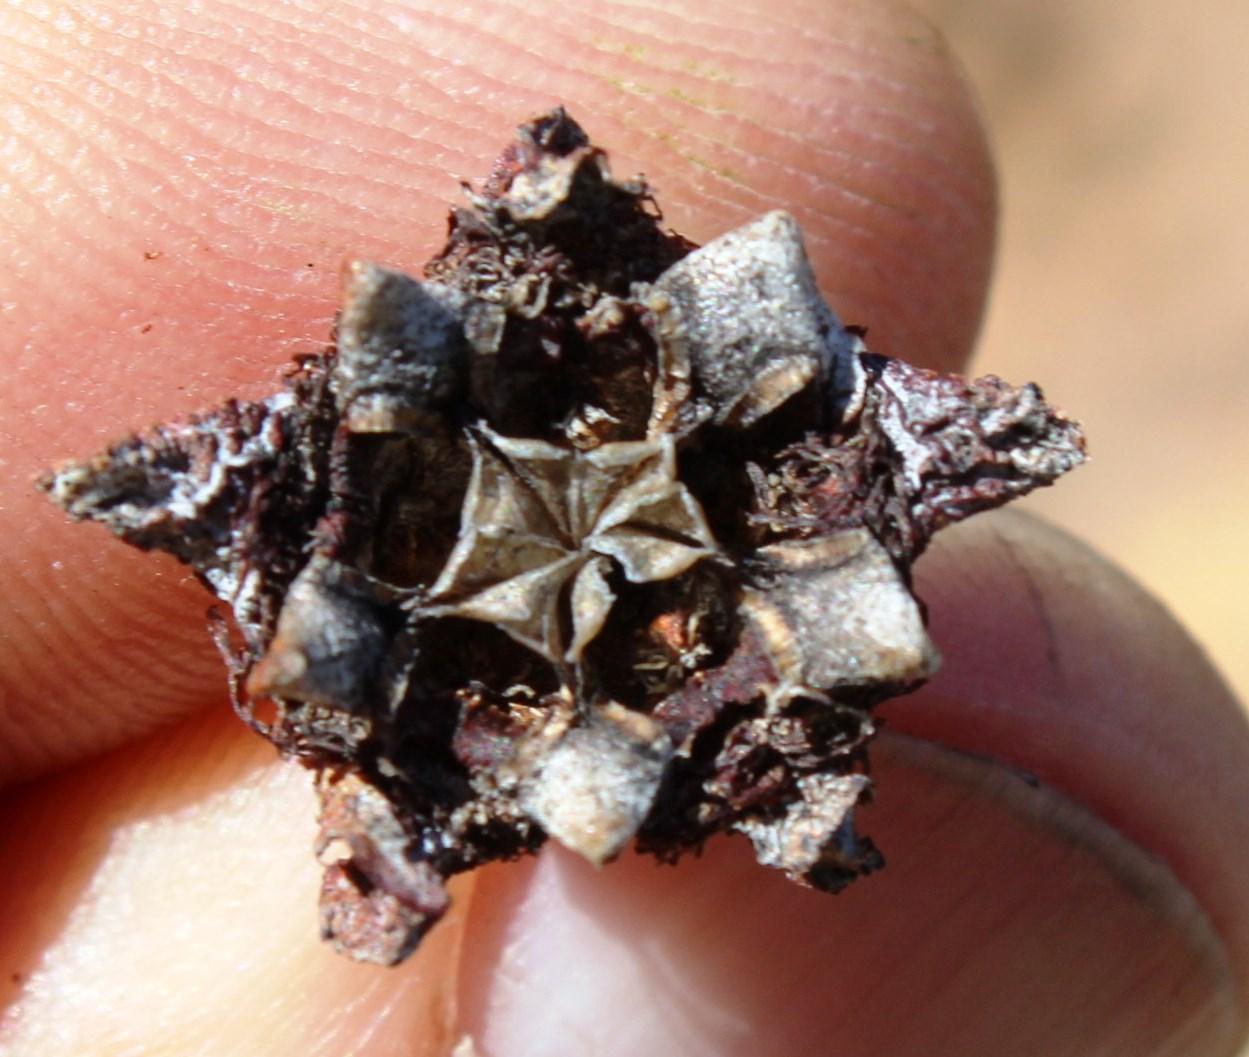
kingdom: Plantae
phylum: Tracheophyta
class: Magnoliopsida
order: Caryophyllales
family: Aizoaceae
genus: Erepsia
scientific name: Erepsia heteropetala
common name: Lesser sea-fig
